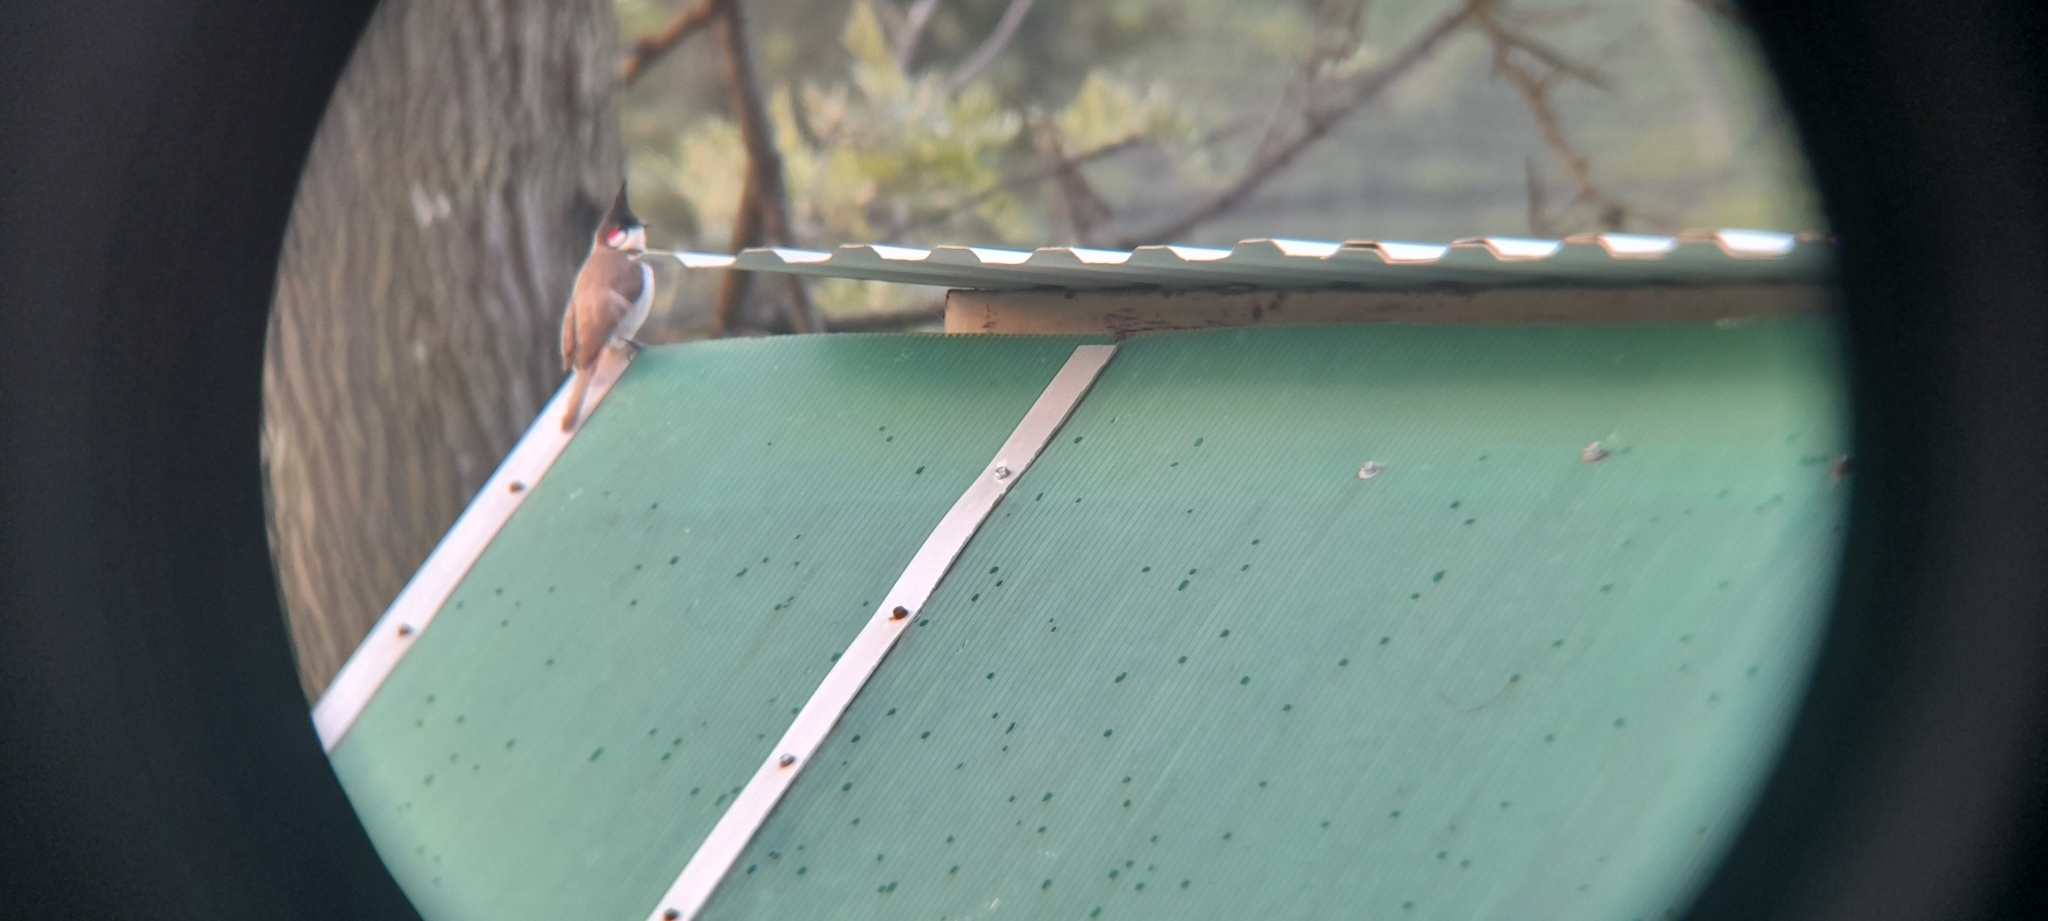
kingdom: Animalia
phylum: Chordata
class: Aves
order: Passeriformes
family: Pycnonotidae
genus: Pycnonotus
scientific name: Pycnonotus jocosus
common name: Red-whiskered bulbul
